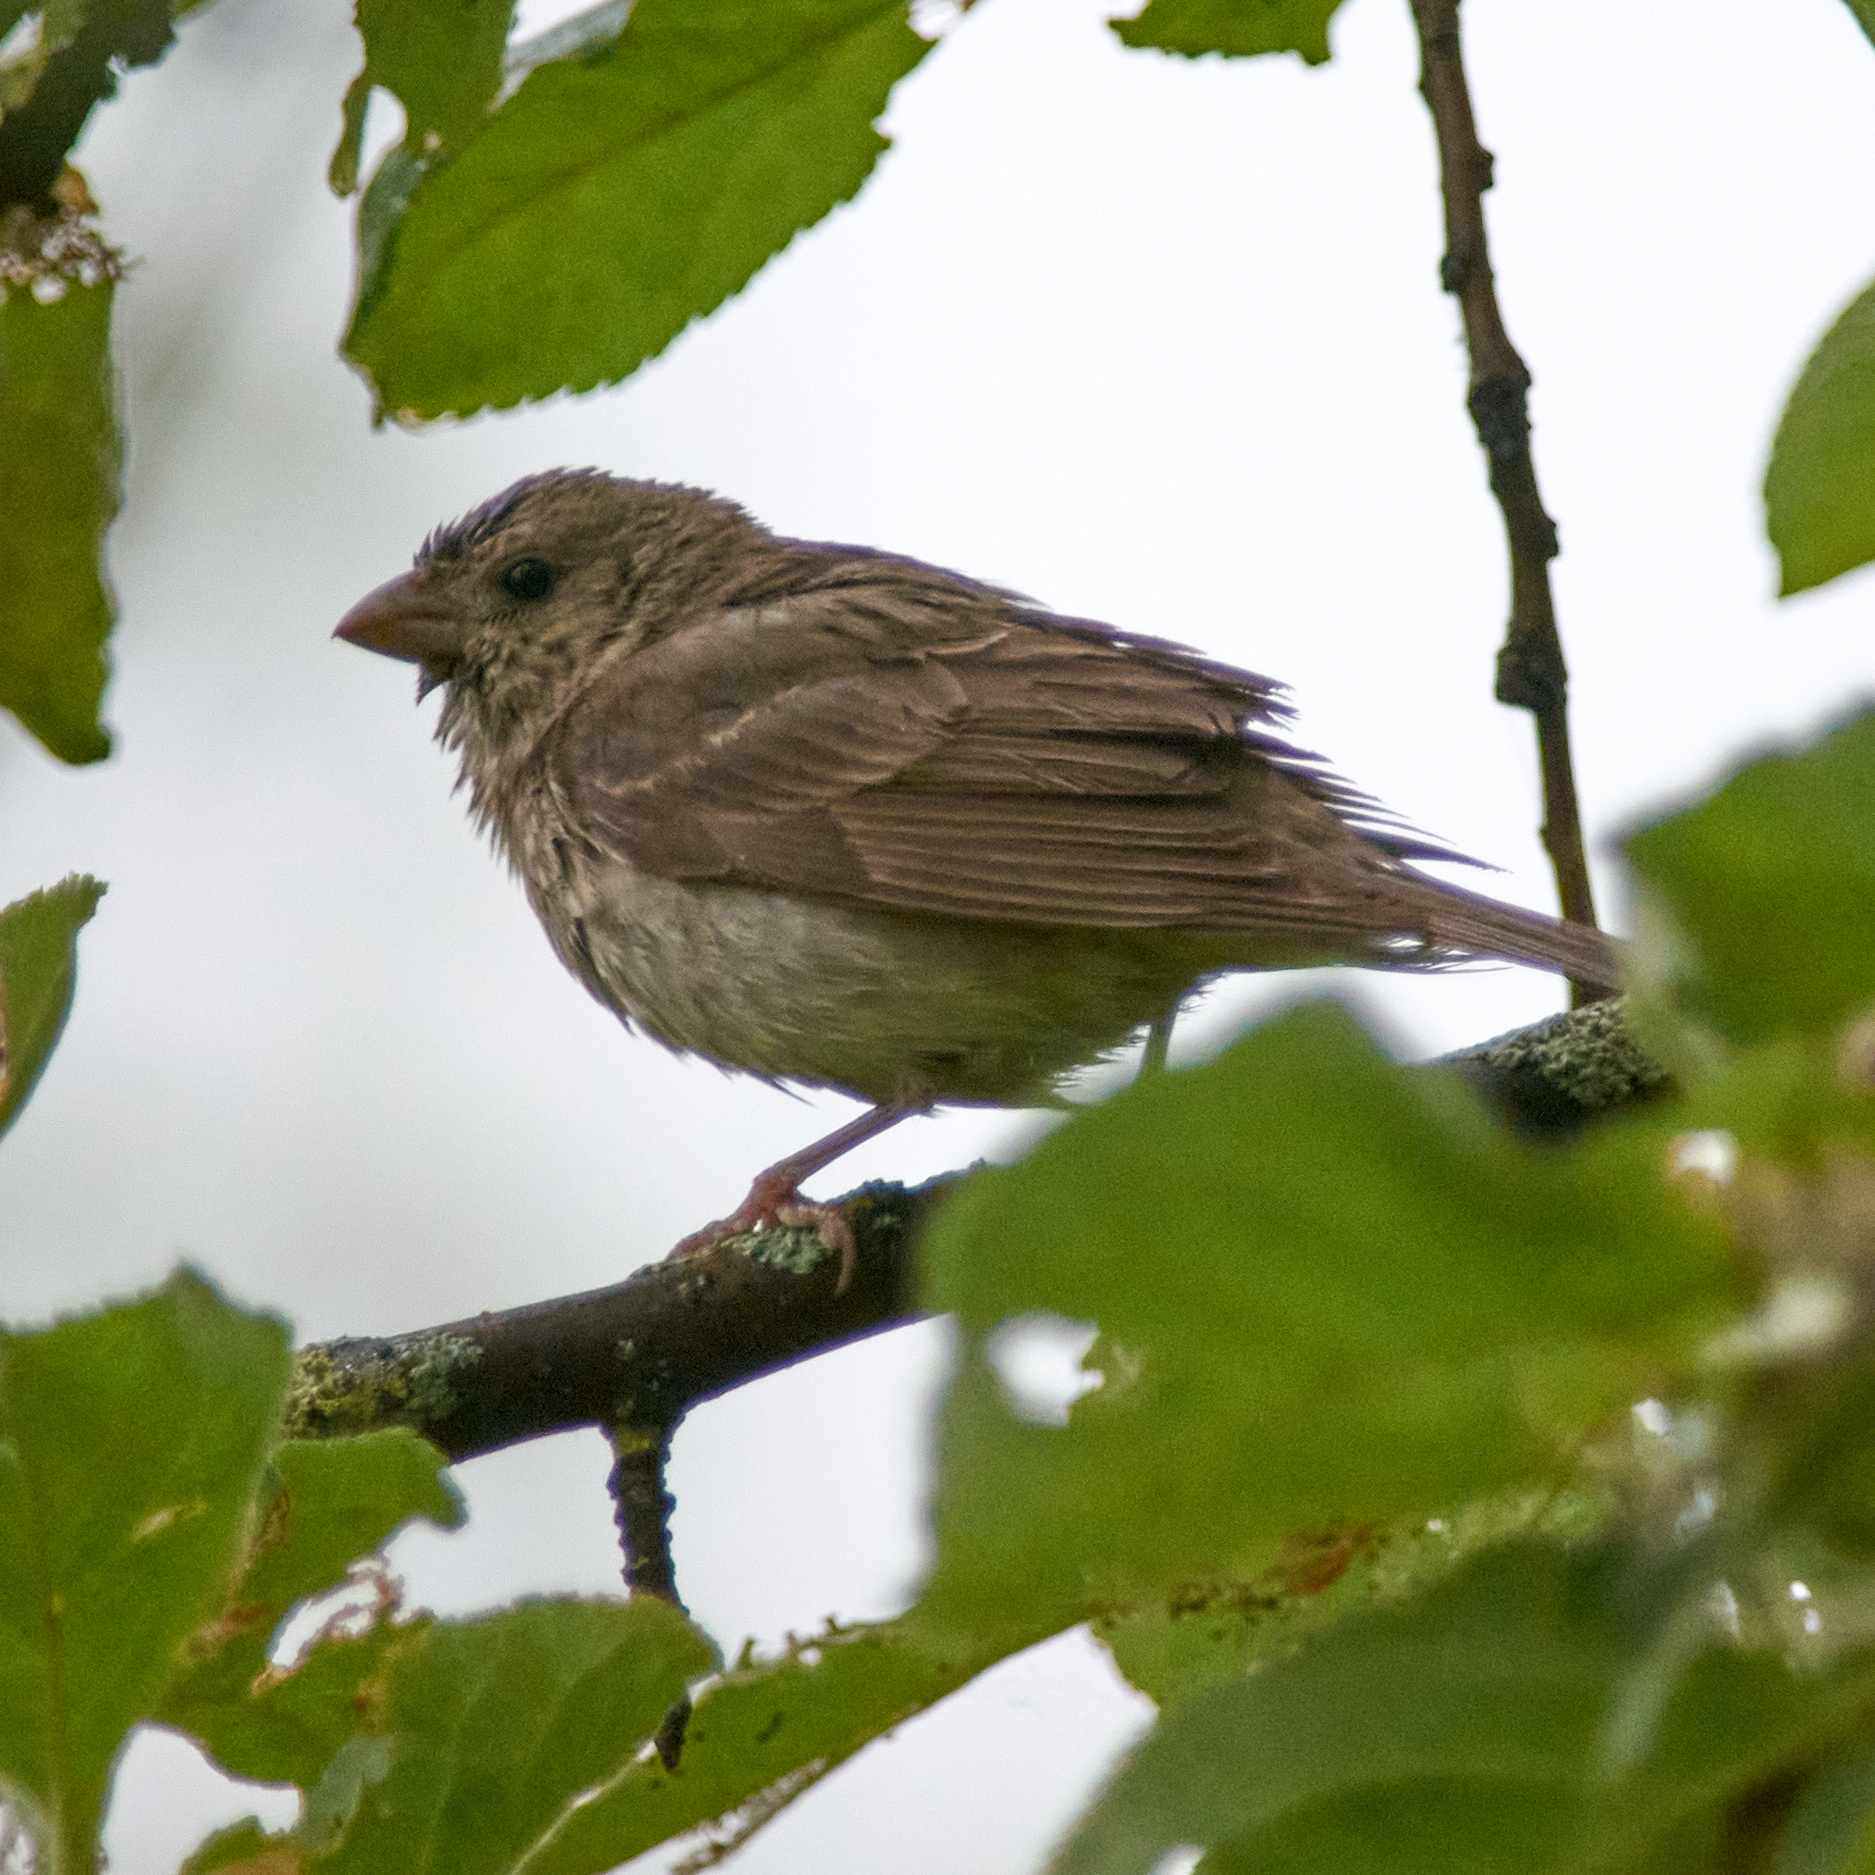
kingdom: Animalia
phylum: Chordata
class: Aves
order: Passeriformes
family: Fringillidae
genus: Carpodacus
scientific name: Carpodacus erythrinus
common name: Common rosefinch
